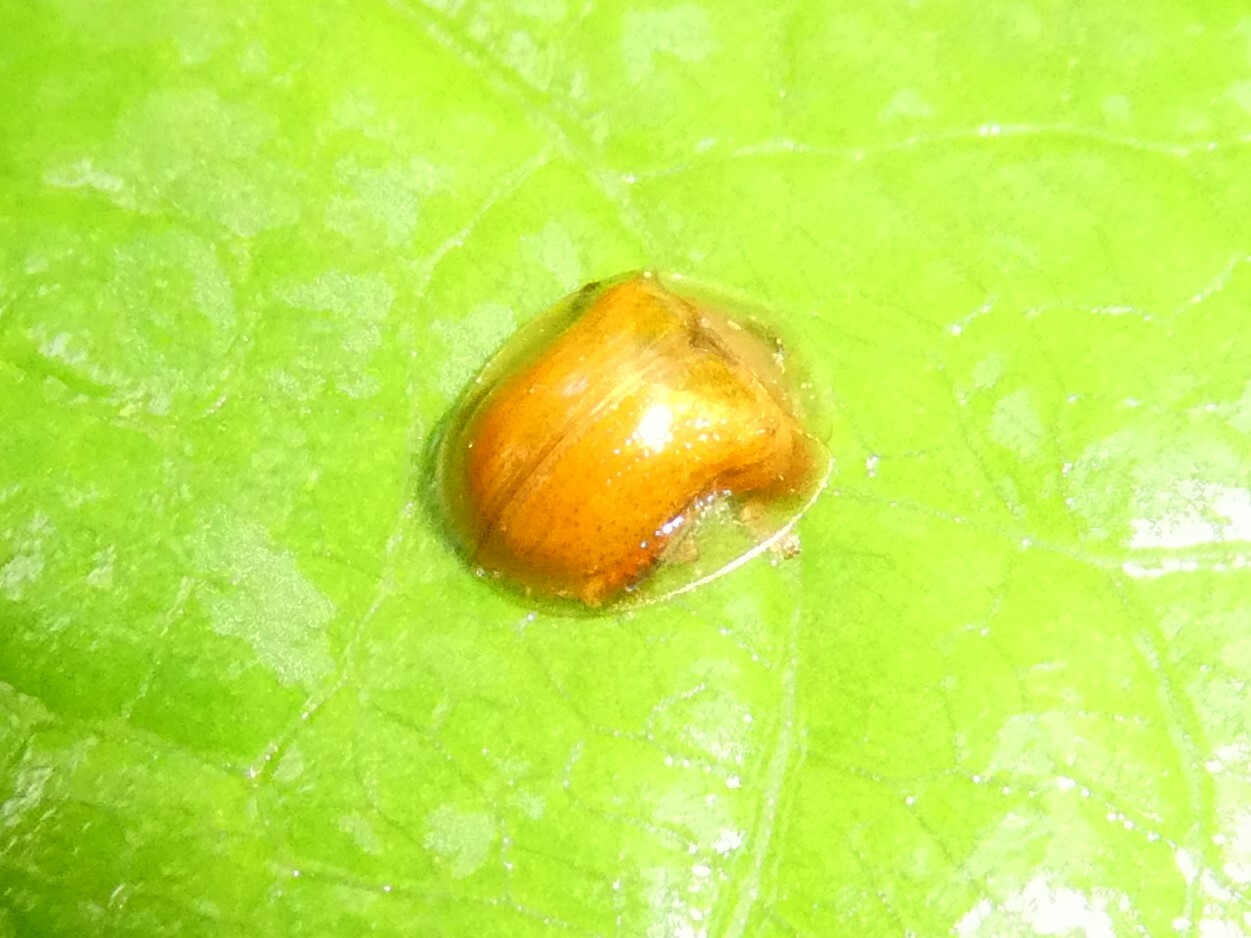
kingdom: Animalia
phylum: Arthropoda
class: Insecta
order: Coleoptera
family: Chrysomelidae
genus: Charidotella
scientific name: Charidotella purpurata
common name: Small orange tortoise beetle
